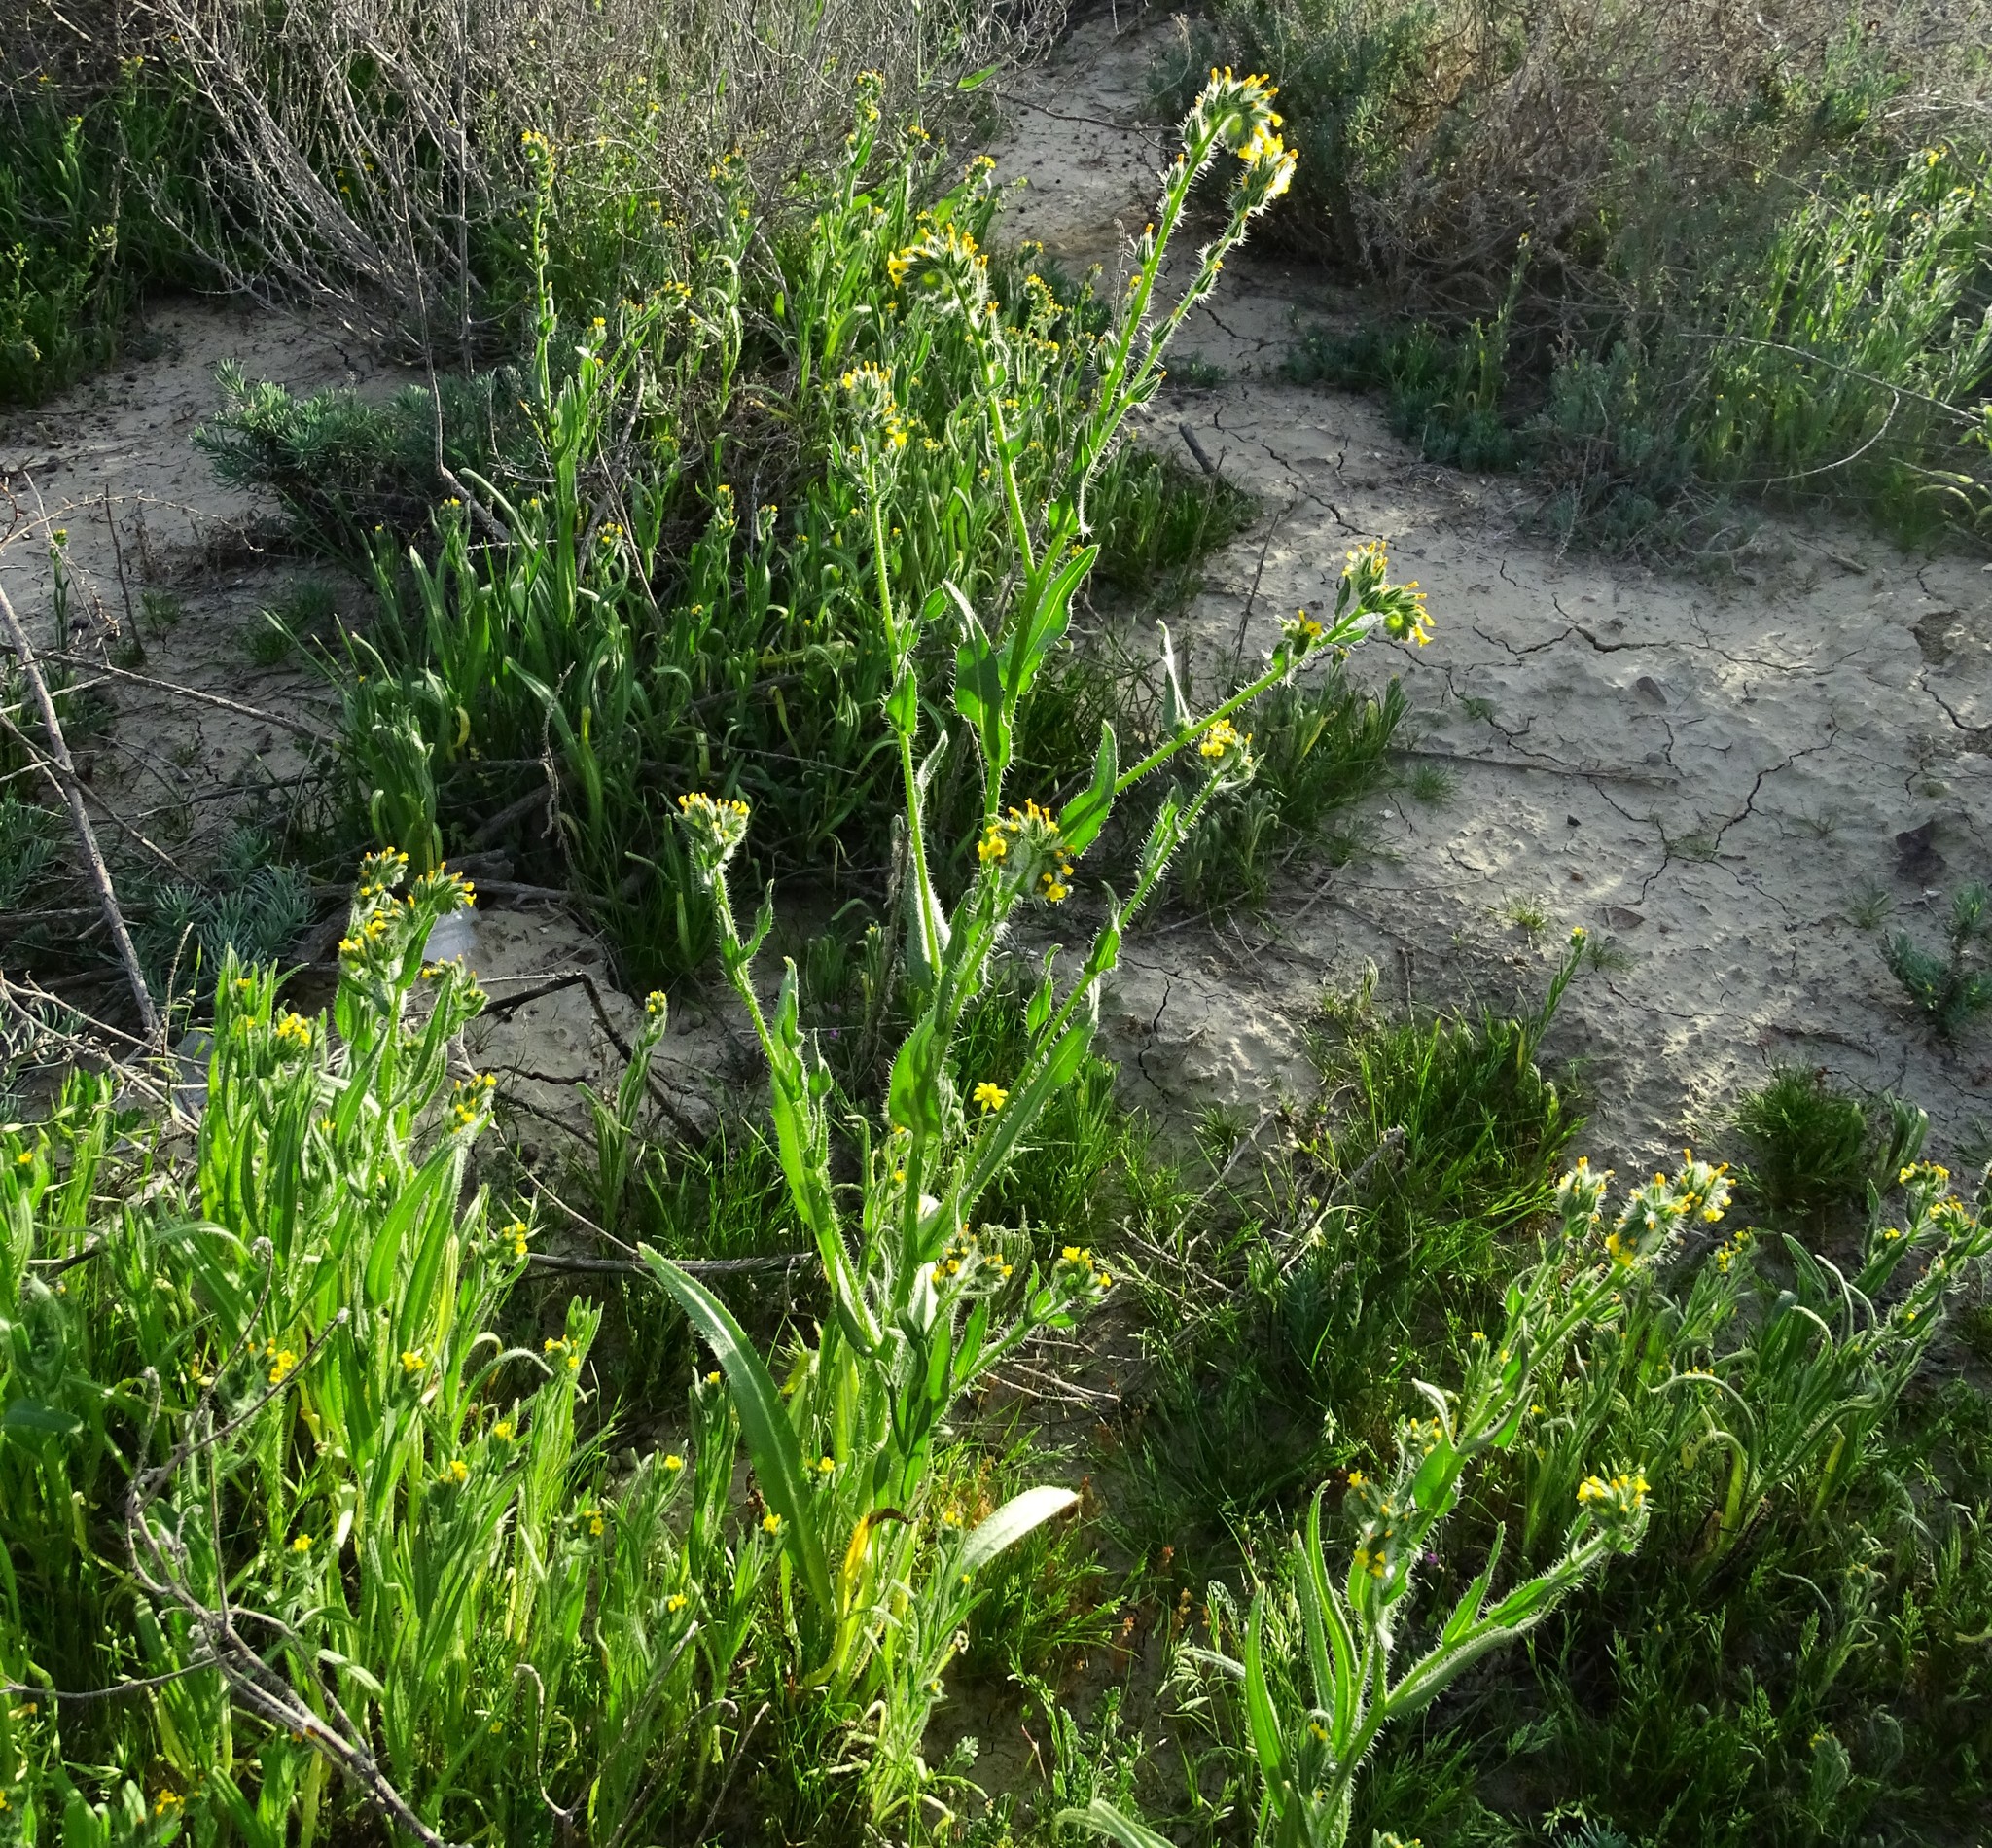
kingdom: Plantae
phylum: Tracheophyta
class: Magnoliopsida
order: Boraginales
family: Boraginaceae
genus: Amsinckia
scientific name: Amsinckia tessellata
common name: Tessellate fiddleneck
